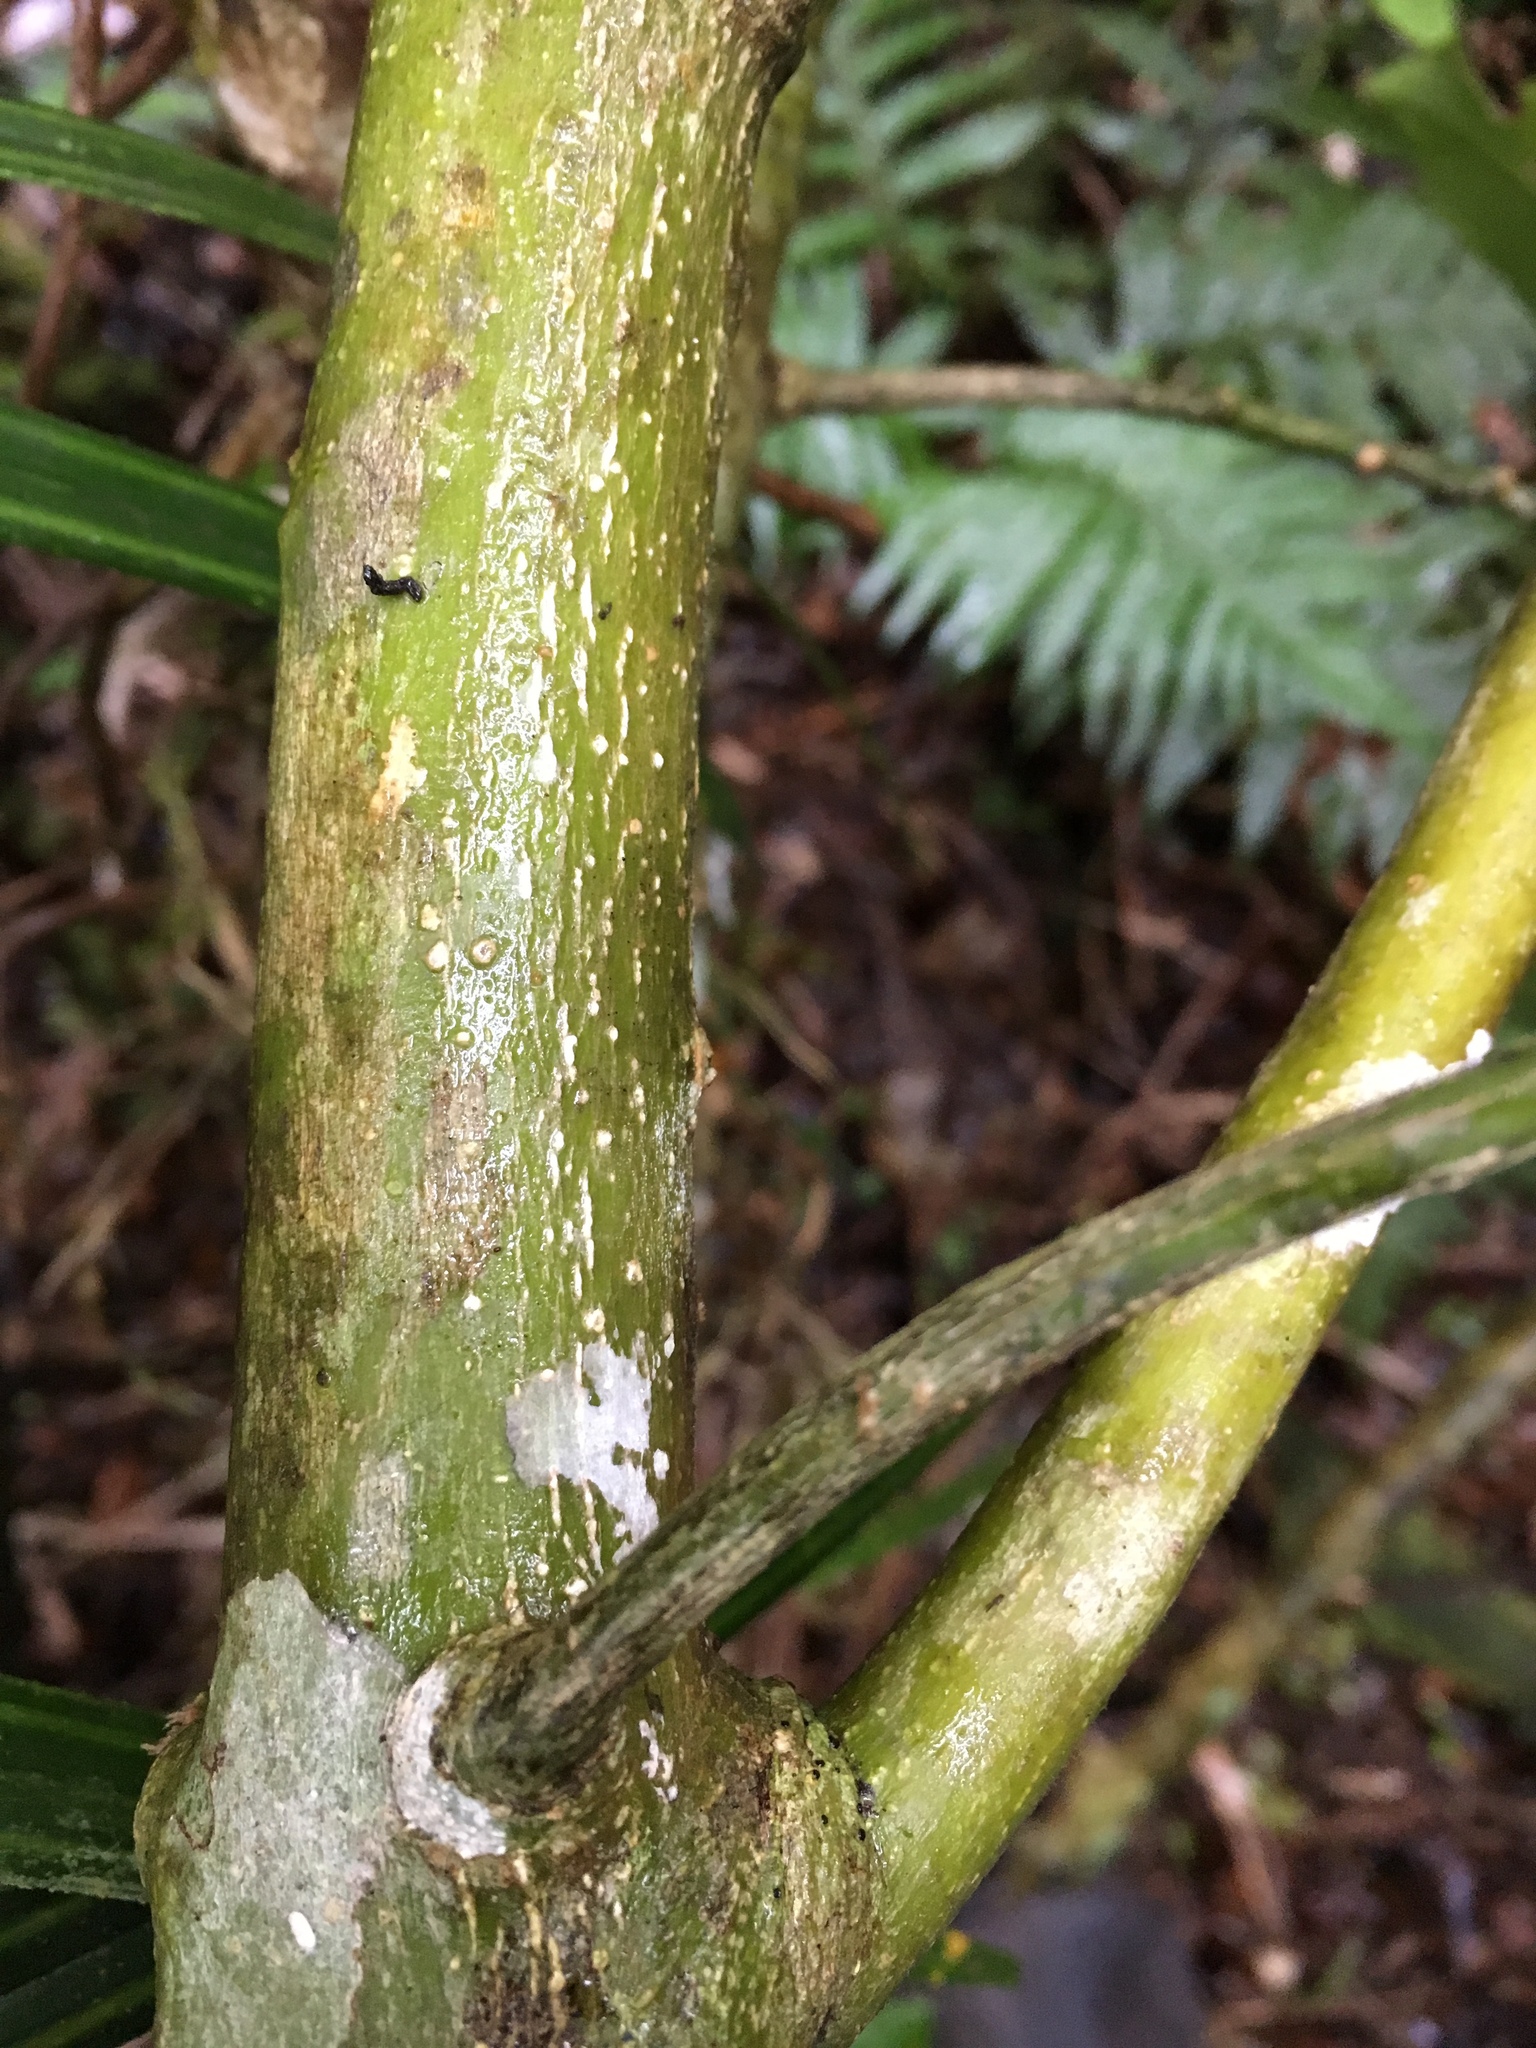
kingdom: Plantae
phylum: Tracheophyta
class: Magnoliopsida
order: Malpighiales
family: Violaceae
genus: Melicytus
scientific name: Melicytus macrophyllus
